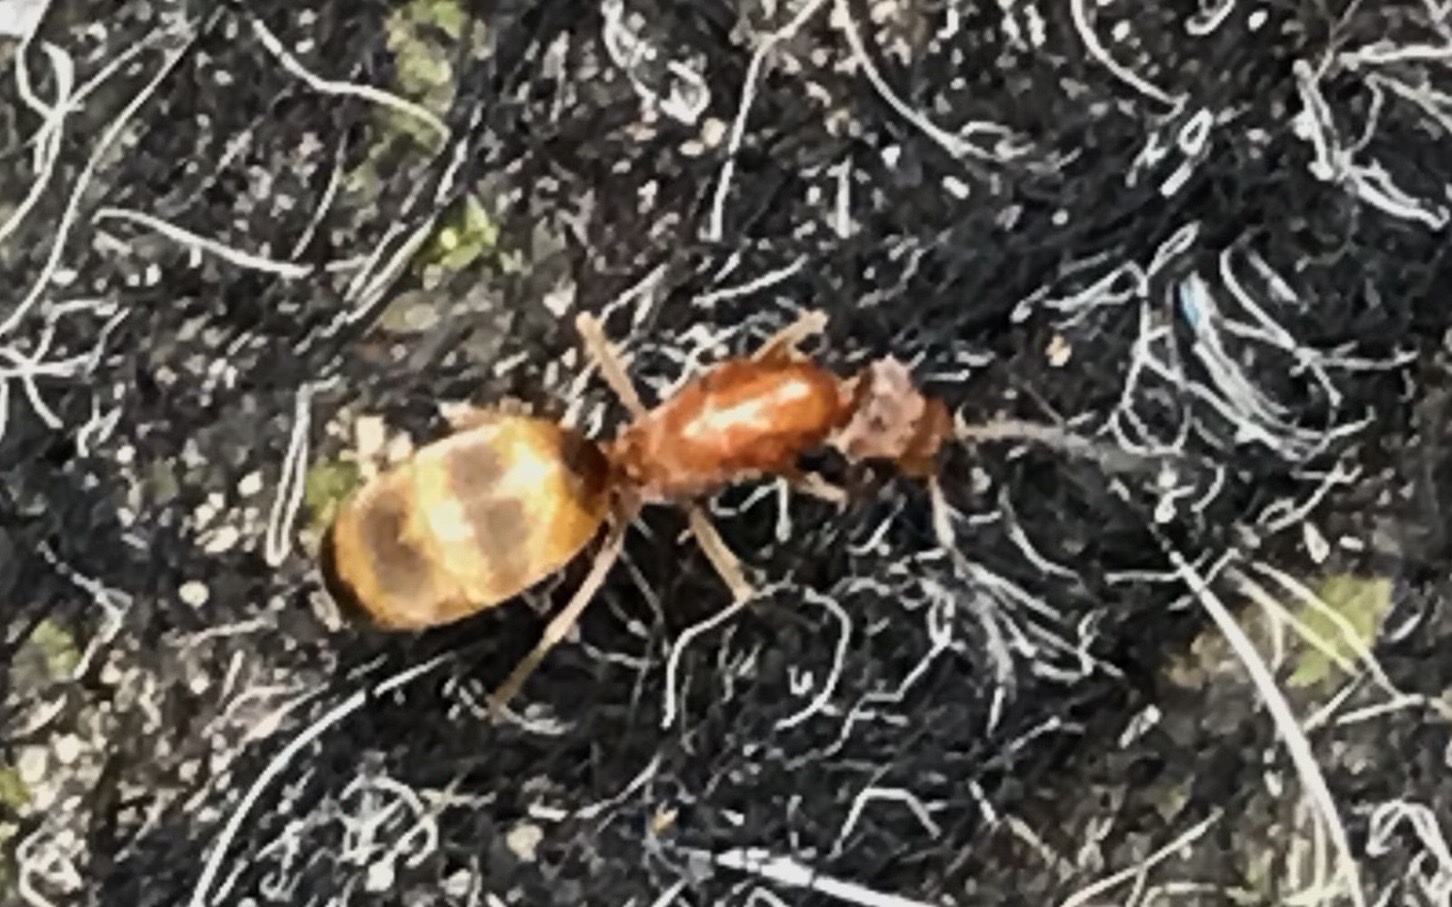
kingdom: Animalia
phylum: Arthropoda
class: Insecta
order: Hymenoptera
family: Formicidae
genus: Dorymyrmex
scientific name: Dorymyrmex flavus
